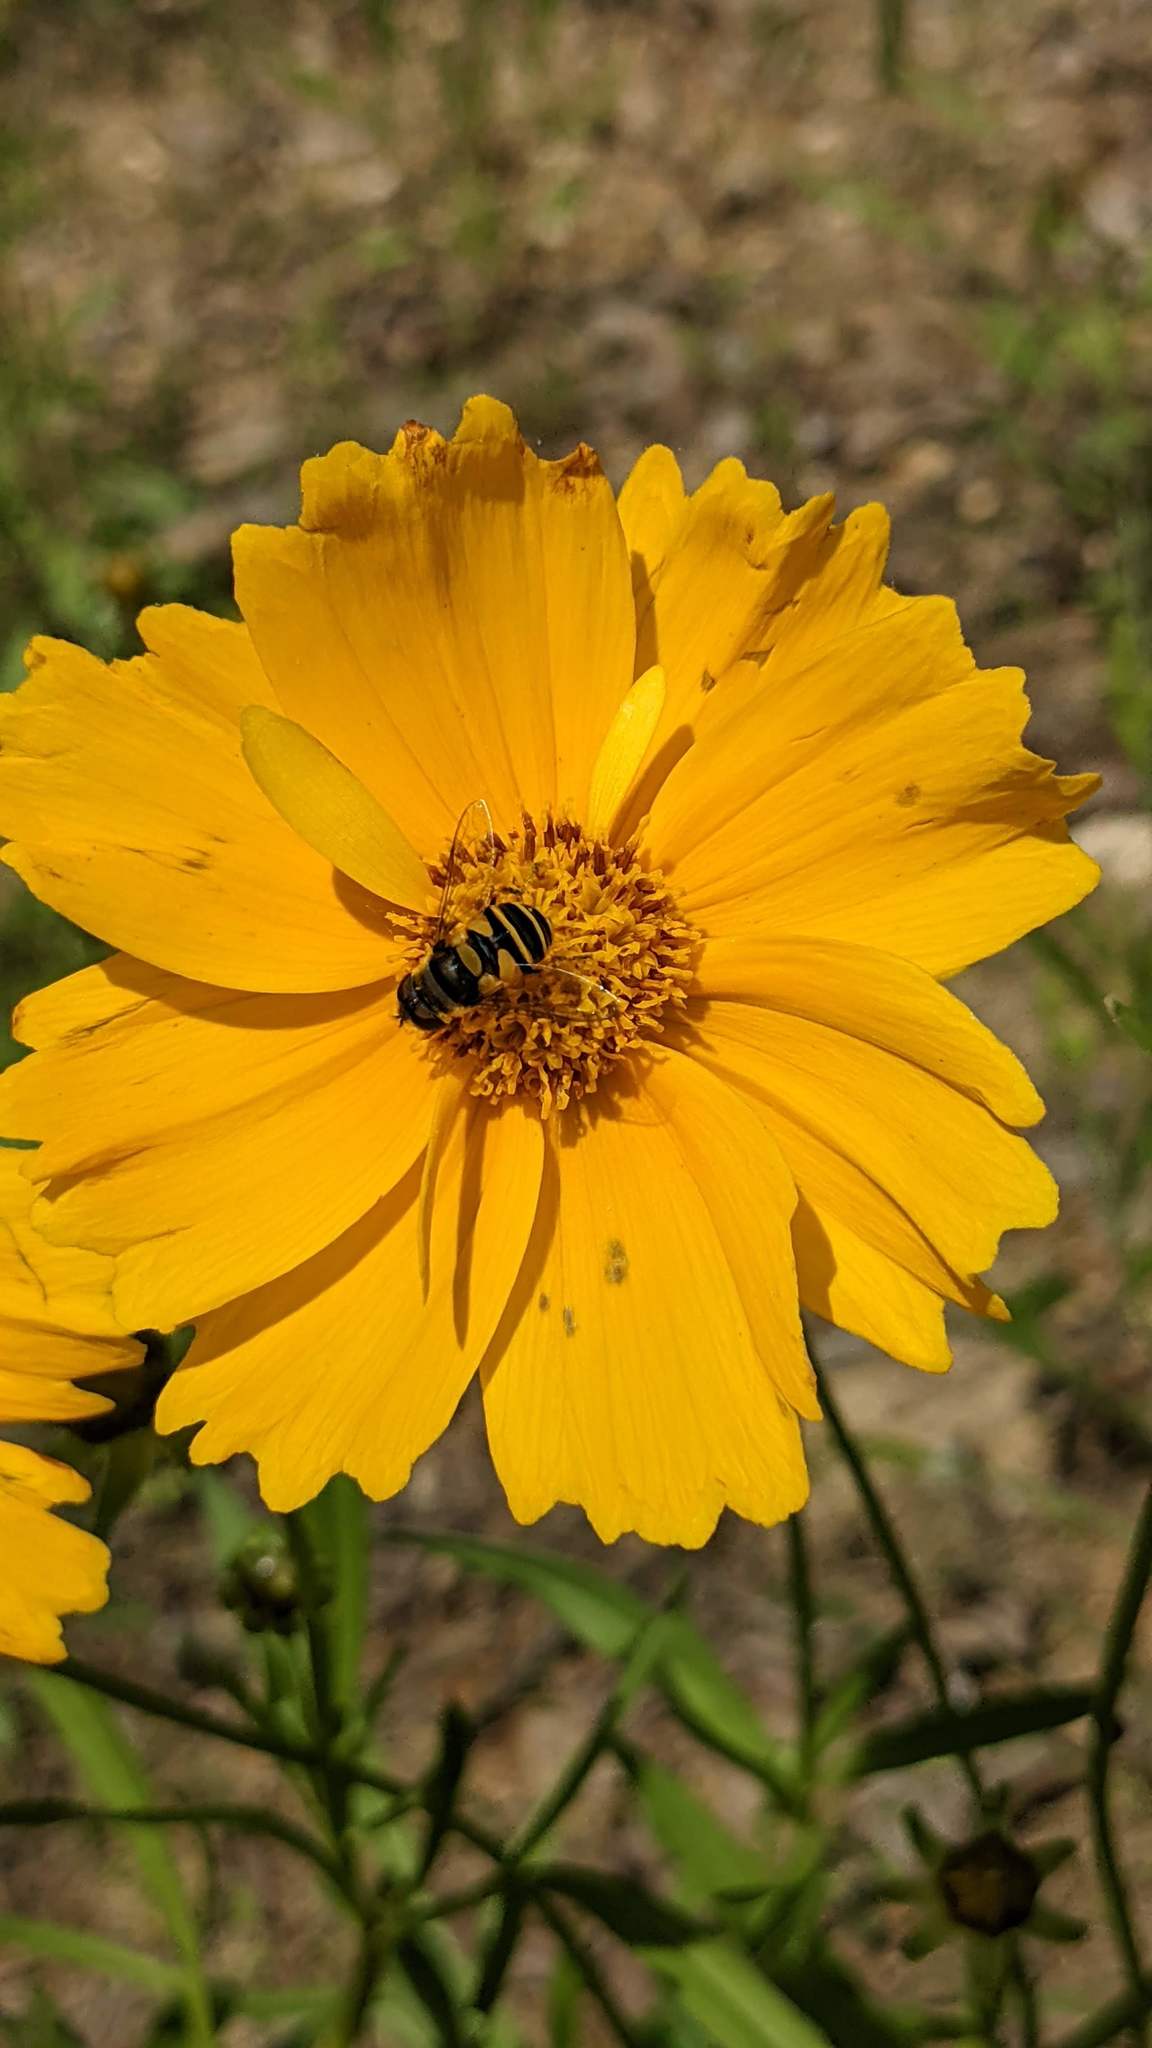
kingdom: Animalia
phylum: Arthropoda
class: Insecta
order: Diptera
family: Syrphidae
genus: Eristalis
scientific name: Eristalis transversa
